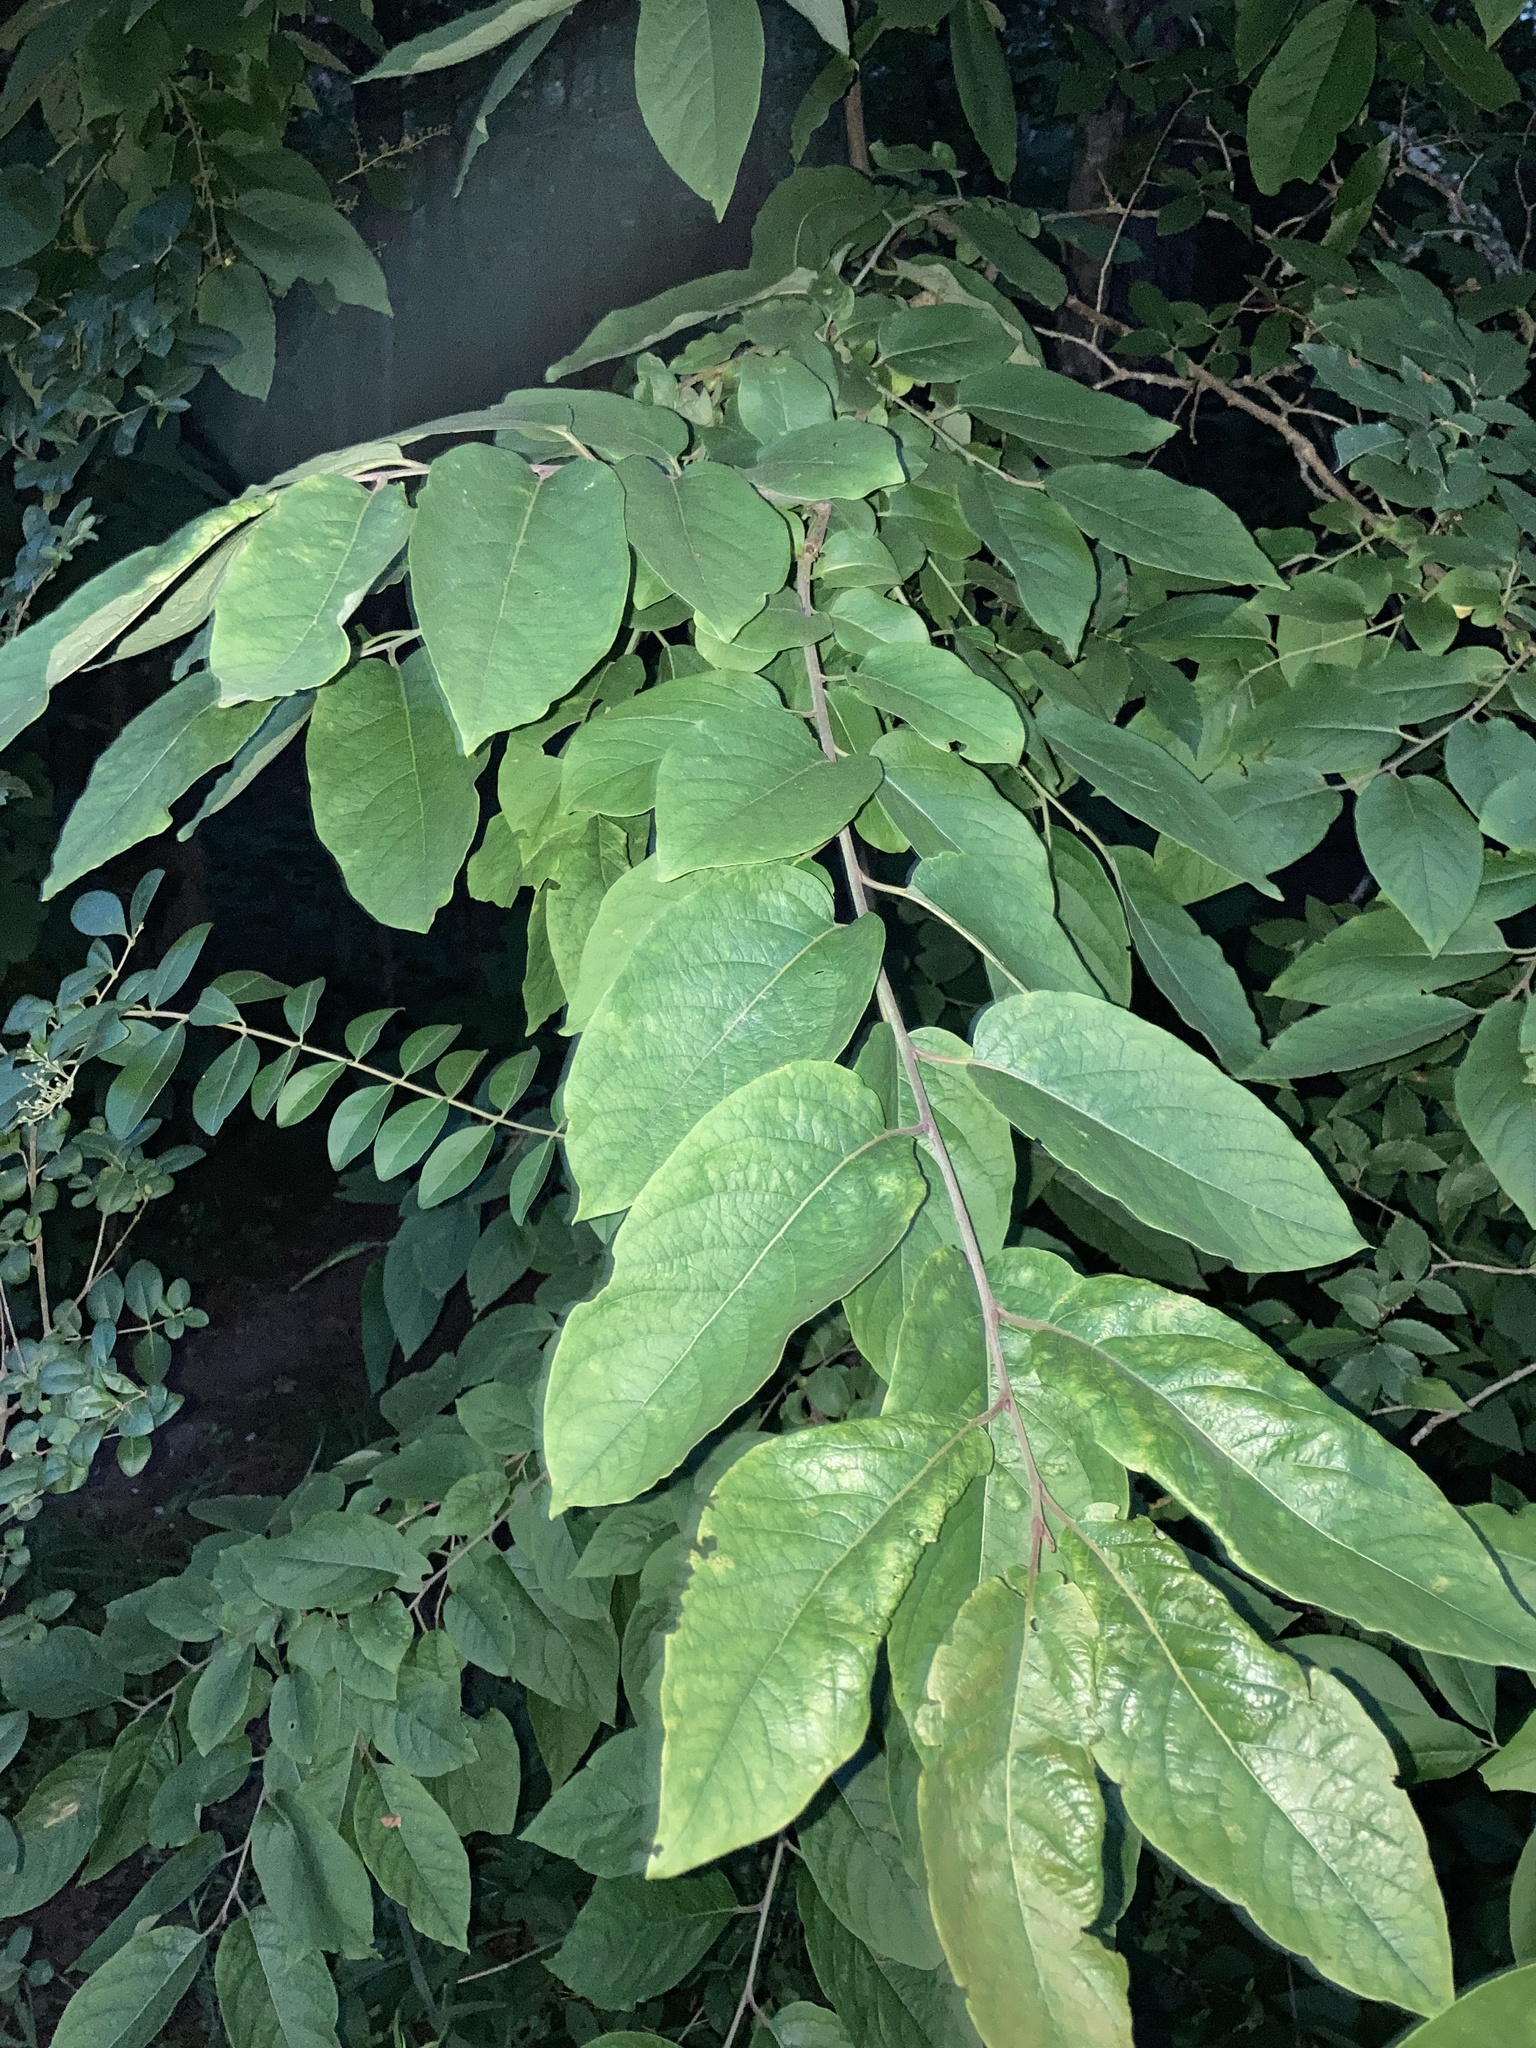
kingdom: Plantae
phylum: Tracheophyta
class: Magnoliopsida
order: Ericales
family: Ebenaceae
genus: Diospyros
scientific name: Diospyros virginiana
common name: Persimmon
